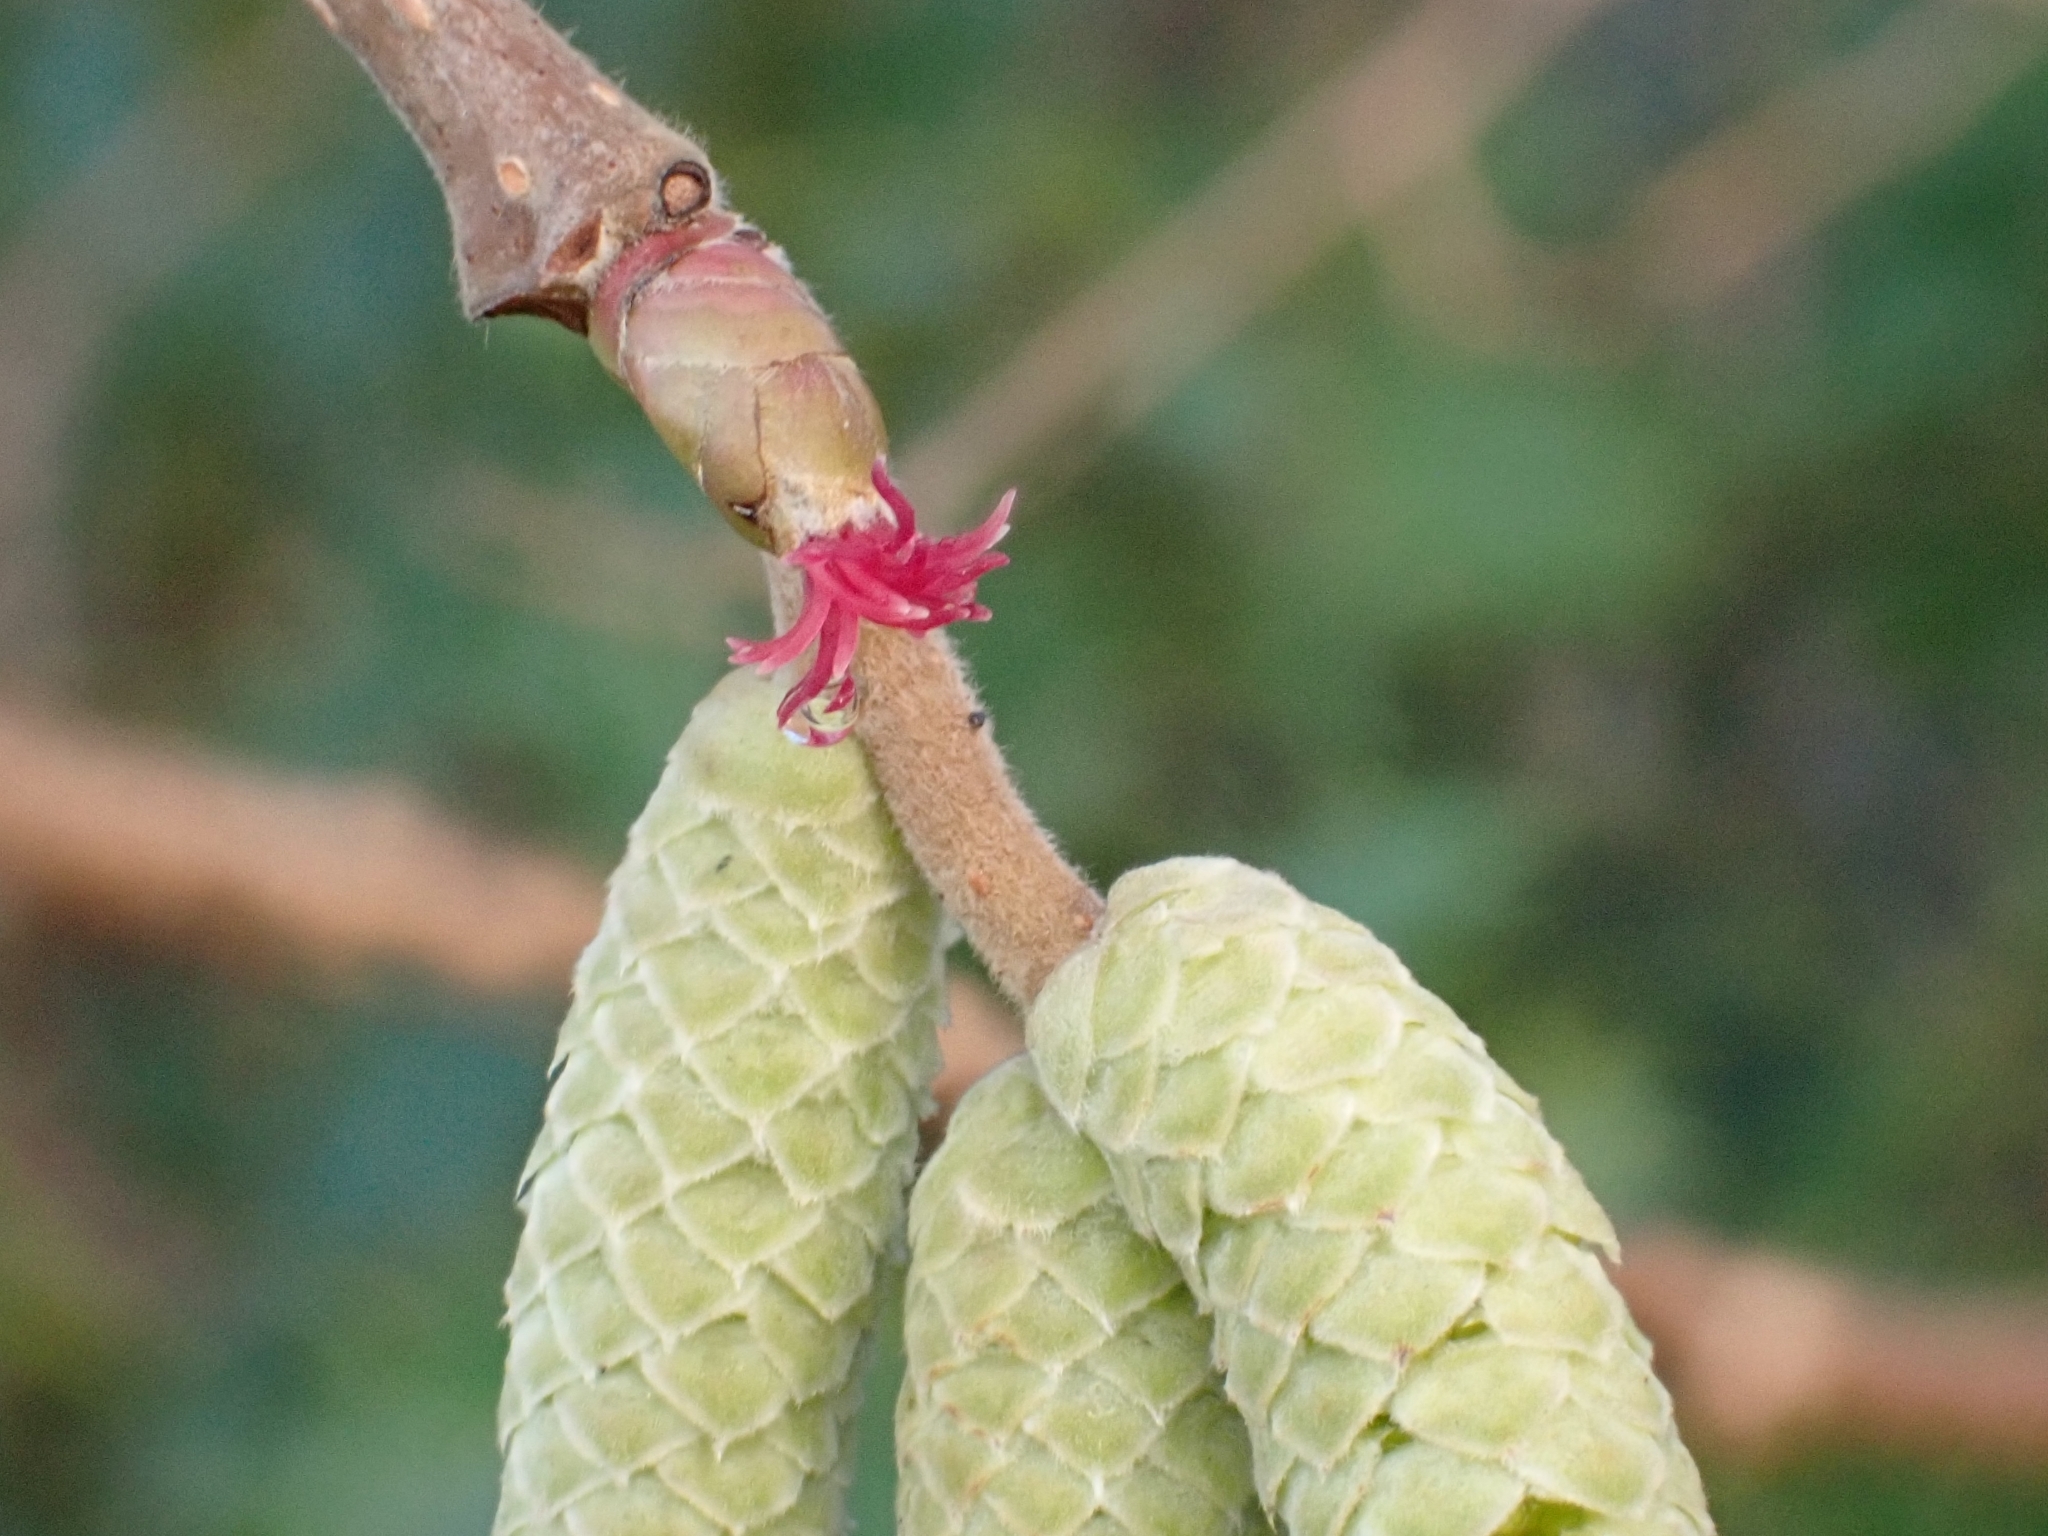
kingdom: Plantae
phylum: Tracheophyta
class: Magnoliopsida
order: Fagales
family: Betulaceae
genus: Corylus
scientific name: Corylus avellana
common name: European hazel
